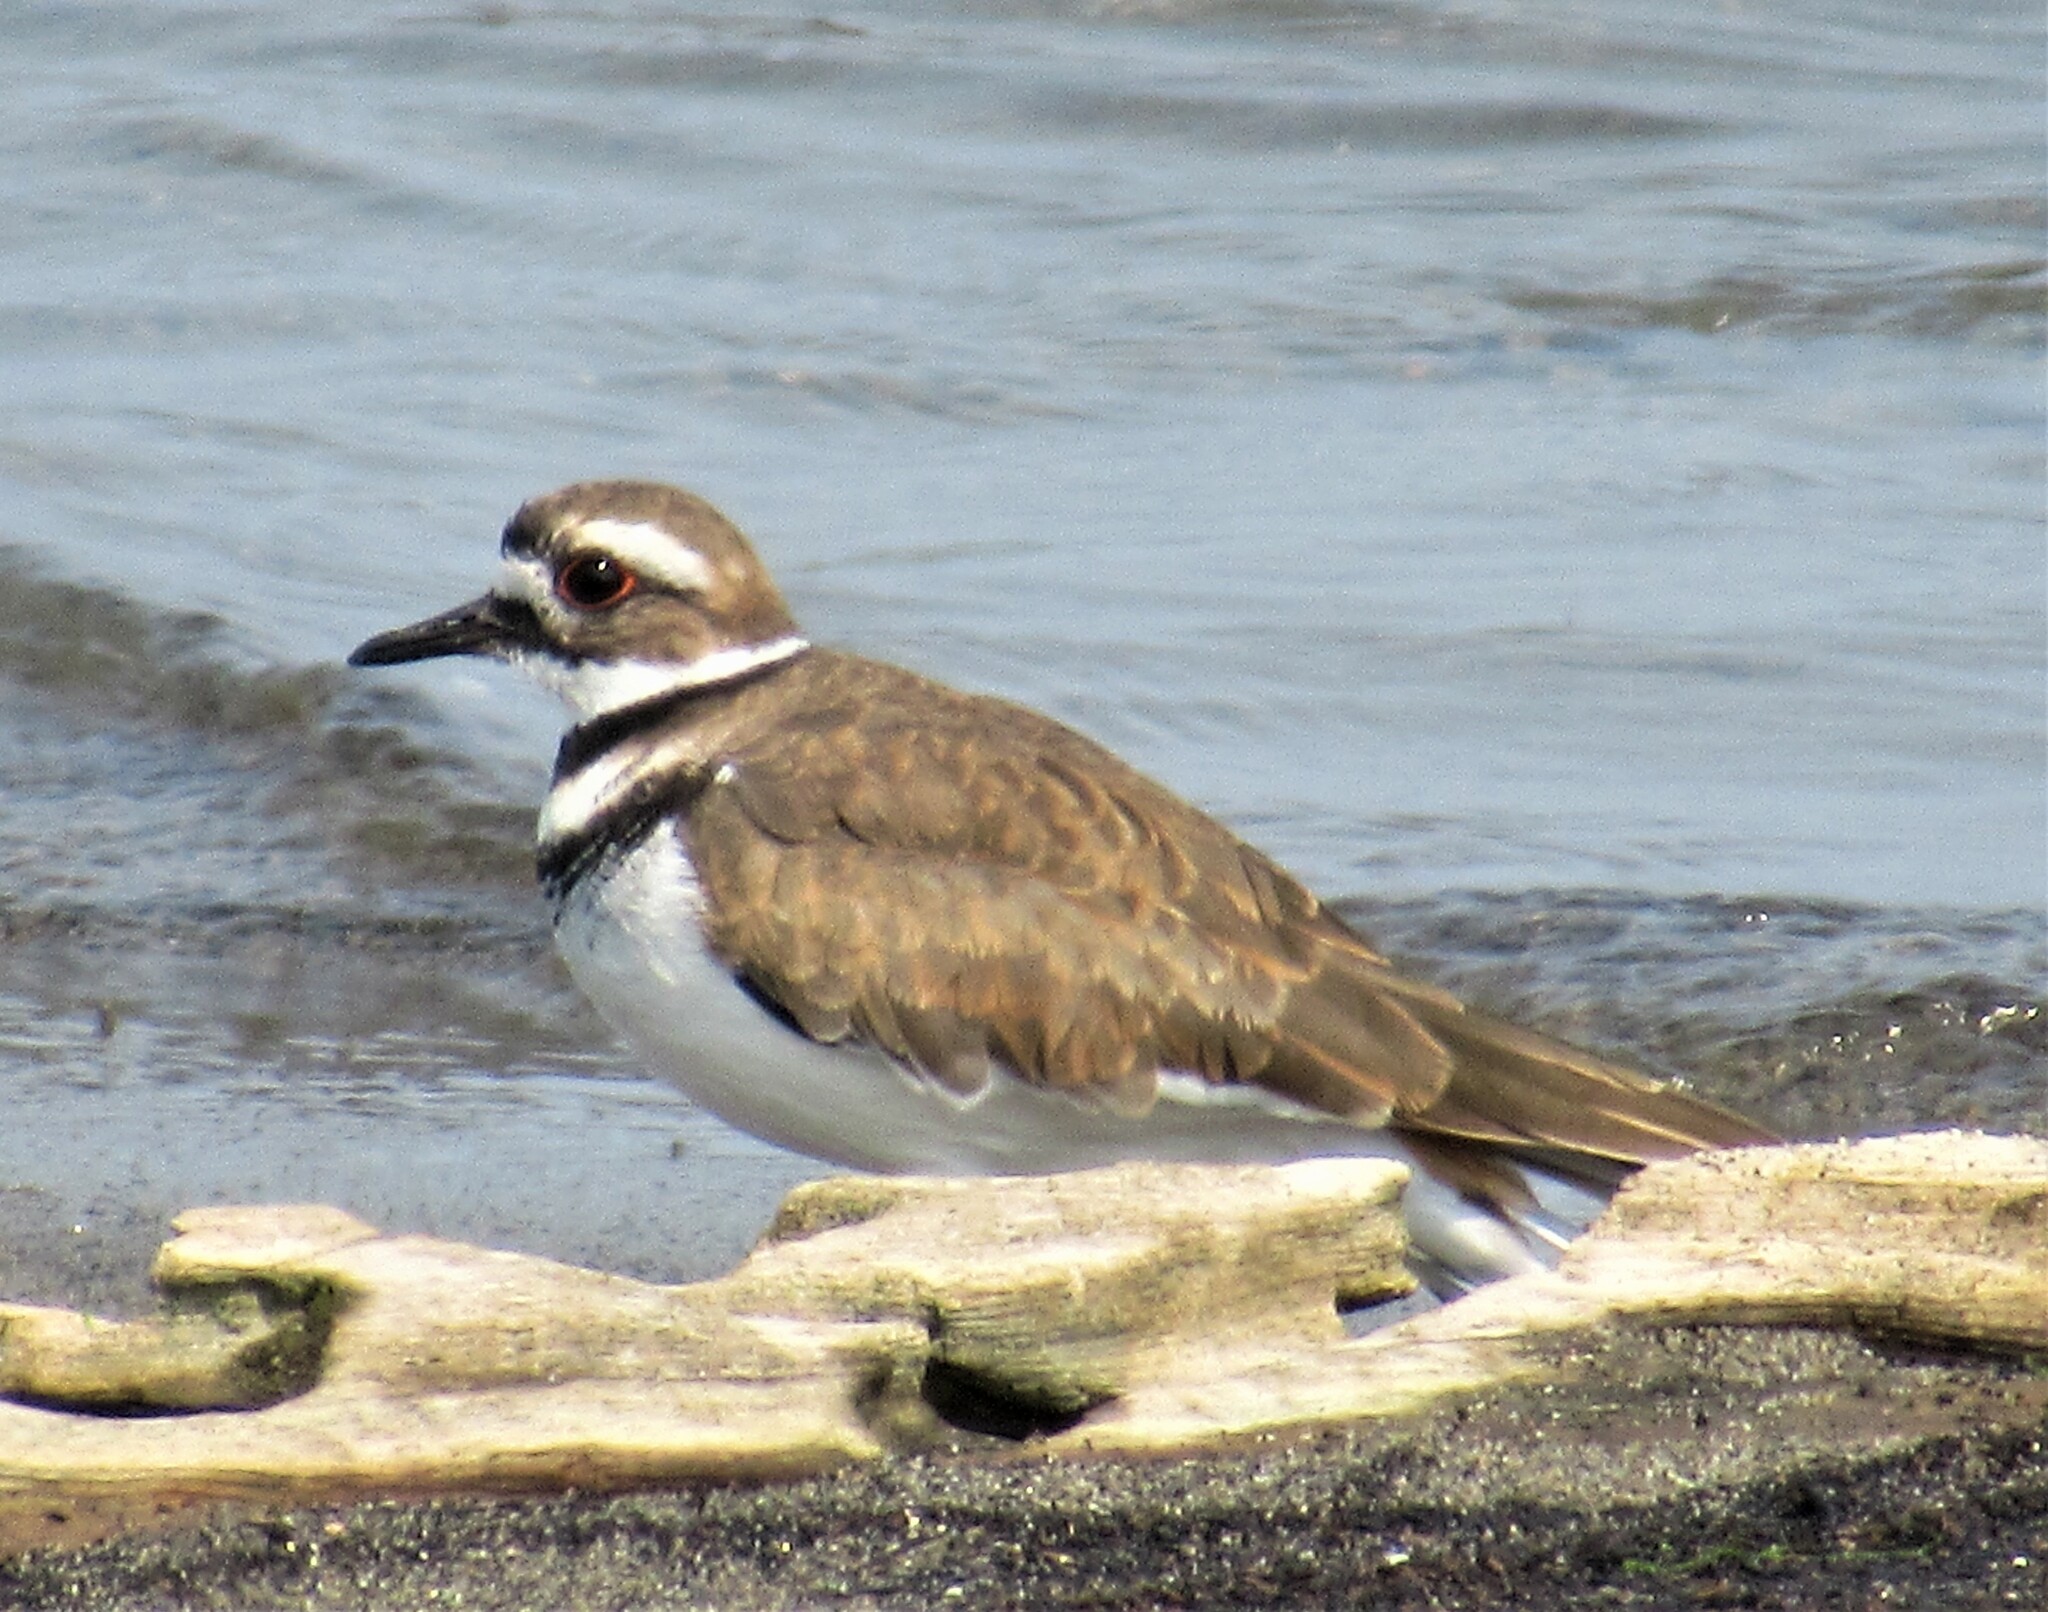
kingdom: Animalia
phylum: Chordata
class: Aves
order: Charadriiformes
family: Charadriidae
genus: Charadrius
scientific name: Charadrius vociferus
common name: Killdeer
